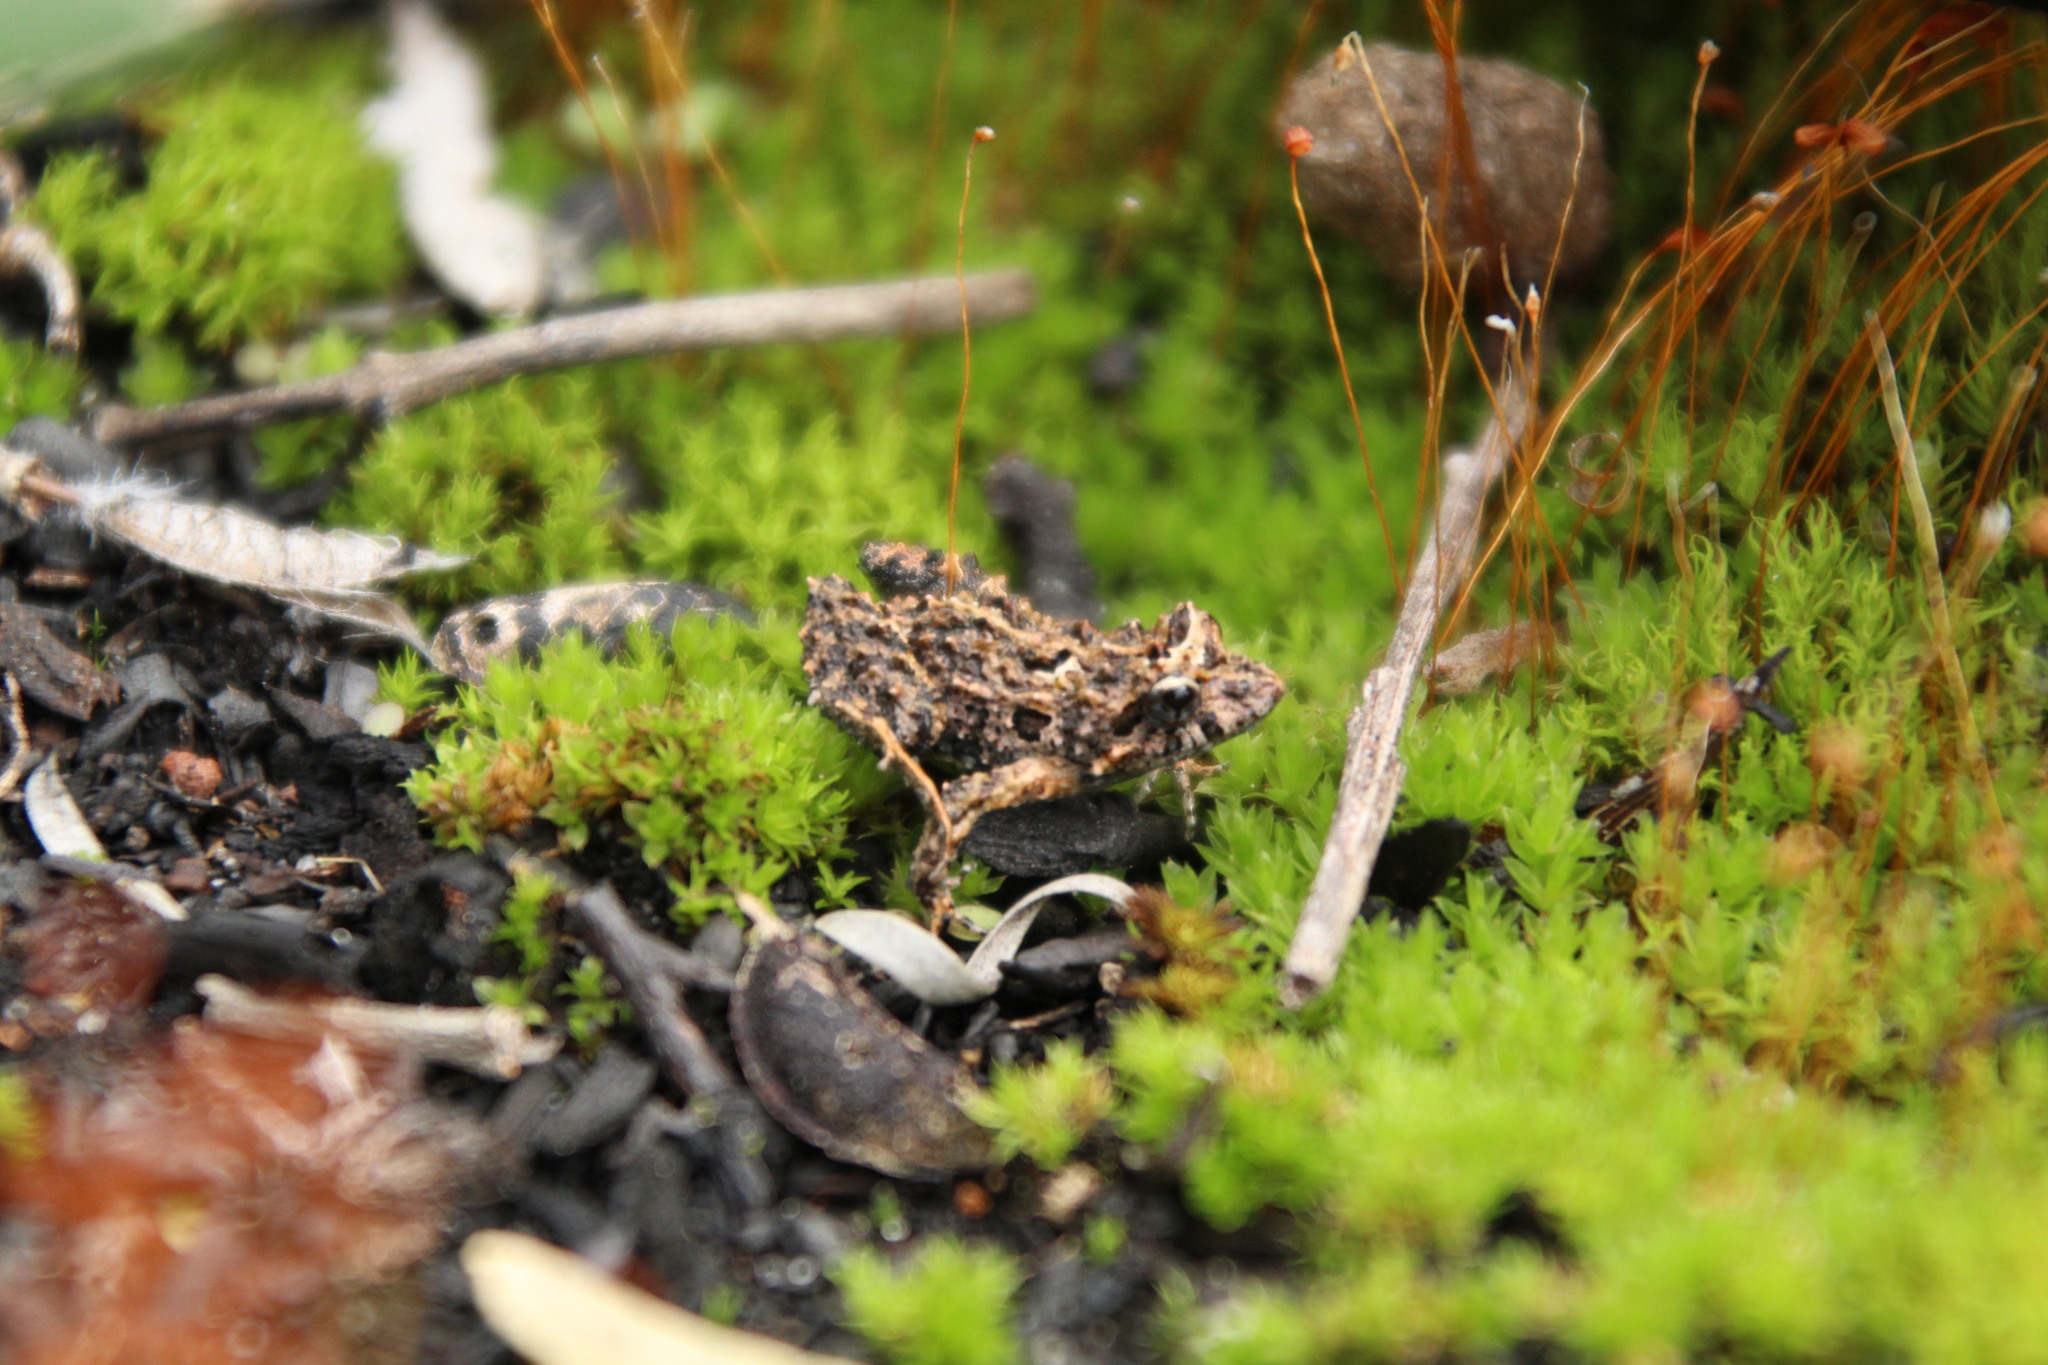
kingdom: Animalia
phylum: Chordata
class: Amphibia
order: Anura
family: Myobatrachidae
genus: Crinia
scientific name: Crinia glauerti
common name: Glauert’s froglet
